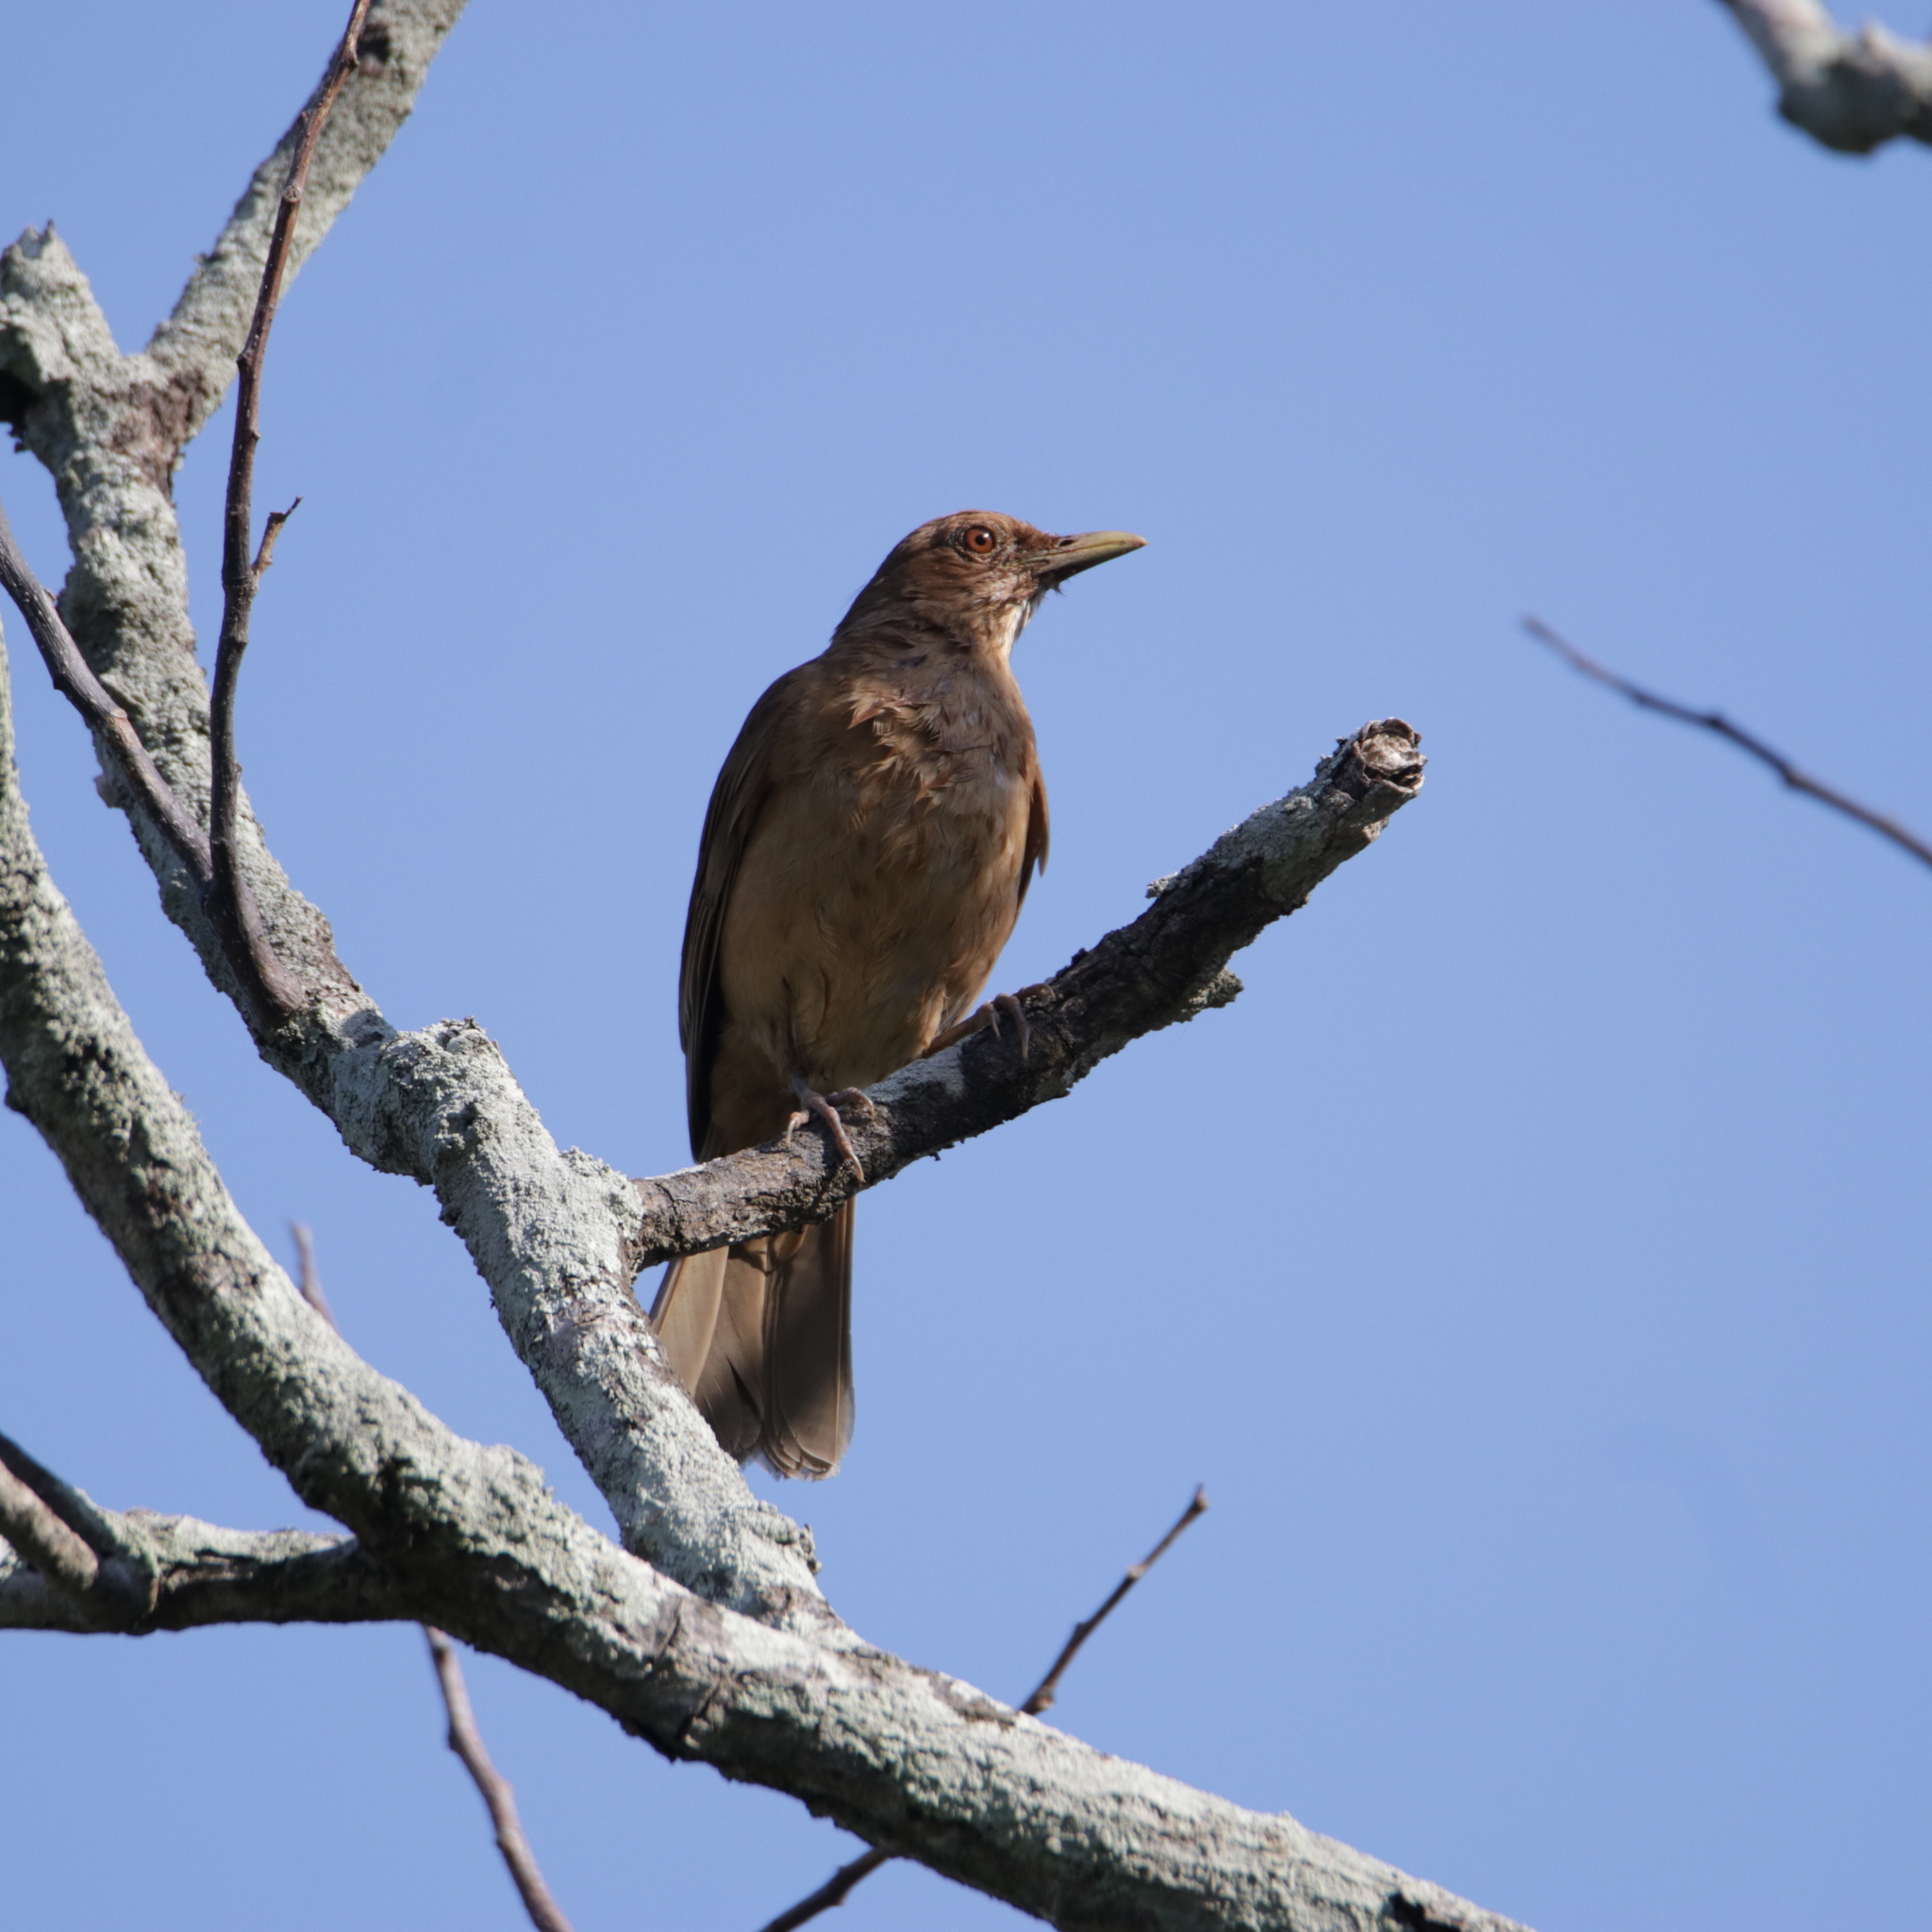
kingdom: Animalia
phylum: Chordata
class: Aves
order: Passeriformes
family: Turdidae
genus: Turdus
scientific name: Turdus grayi
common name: Clay-colored thrush
